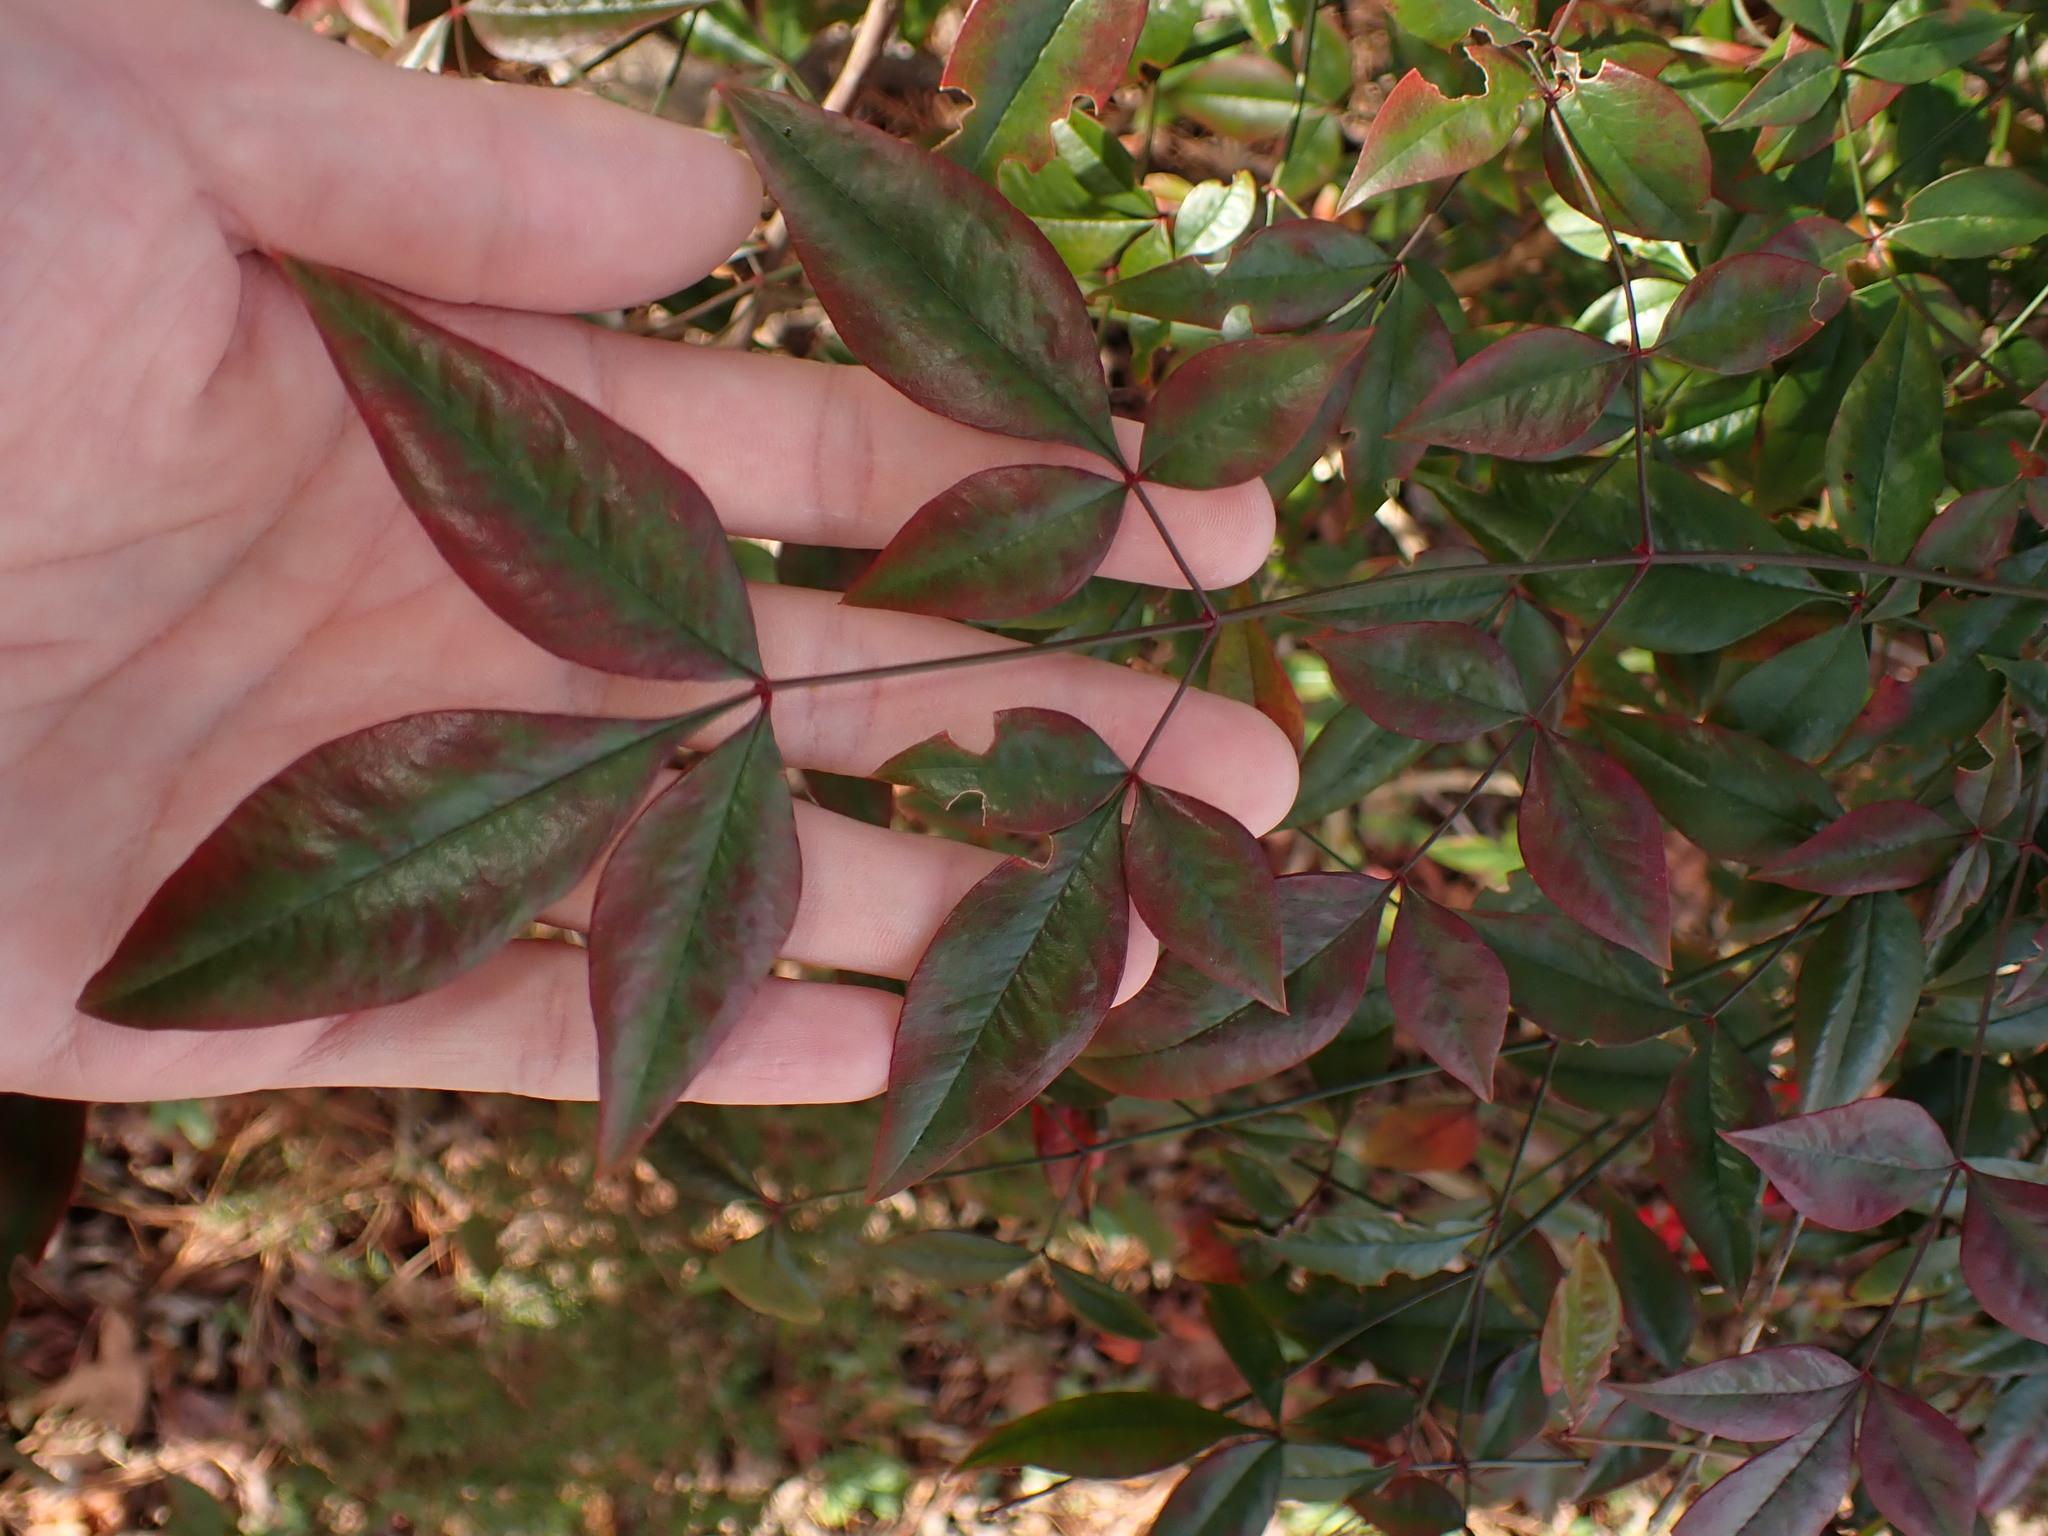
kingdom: Plantae
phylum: Tracheophyta
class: Magnoliopsida
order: Ranunculales
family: Berberidaceae
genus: Nandina
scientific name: Nandina domestica
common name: Sacred bamboo
